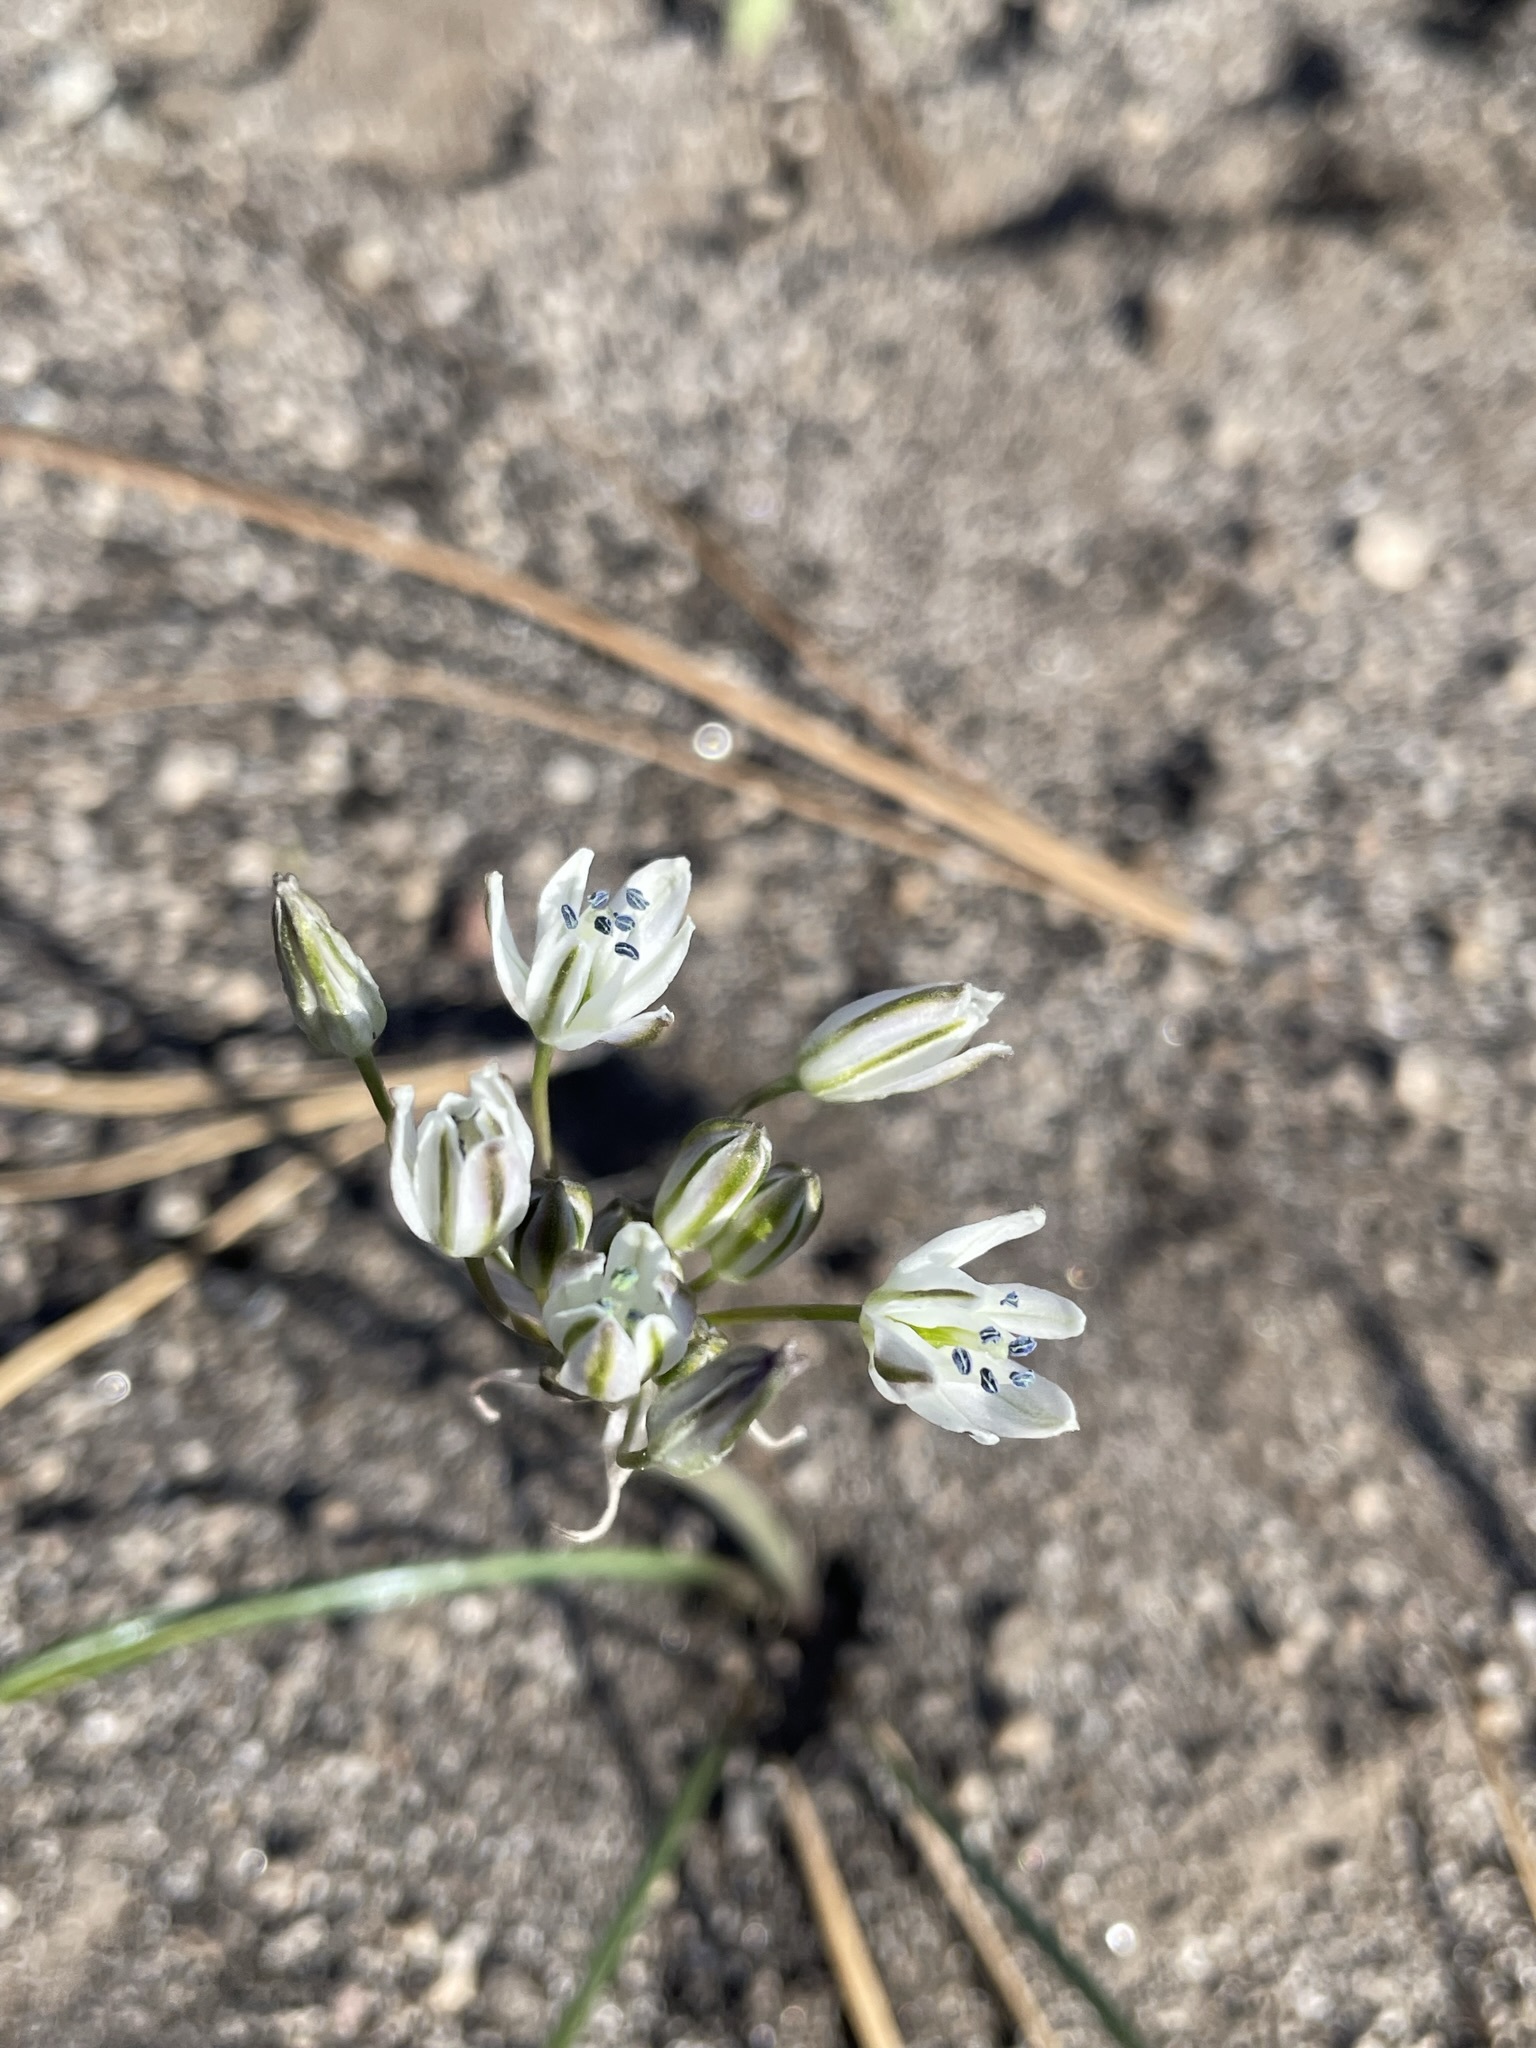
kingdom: Plantae
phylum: Tracheophyta
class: Liliopsida
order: Asparagales
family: Asparagaceae
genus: Muilla
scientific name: Muilla transmontana
